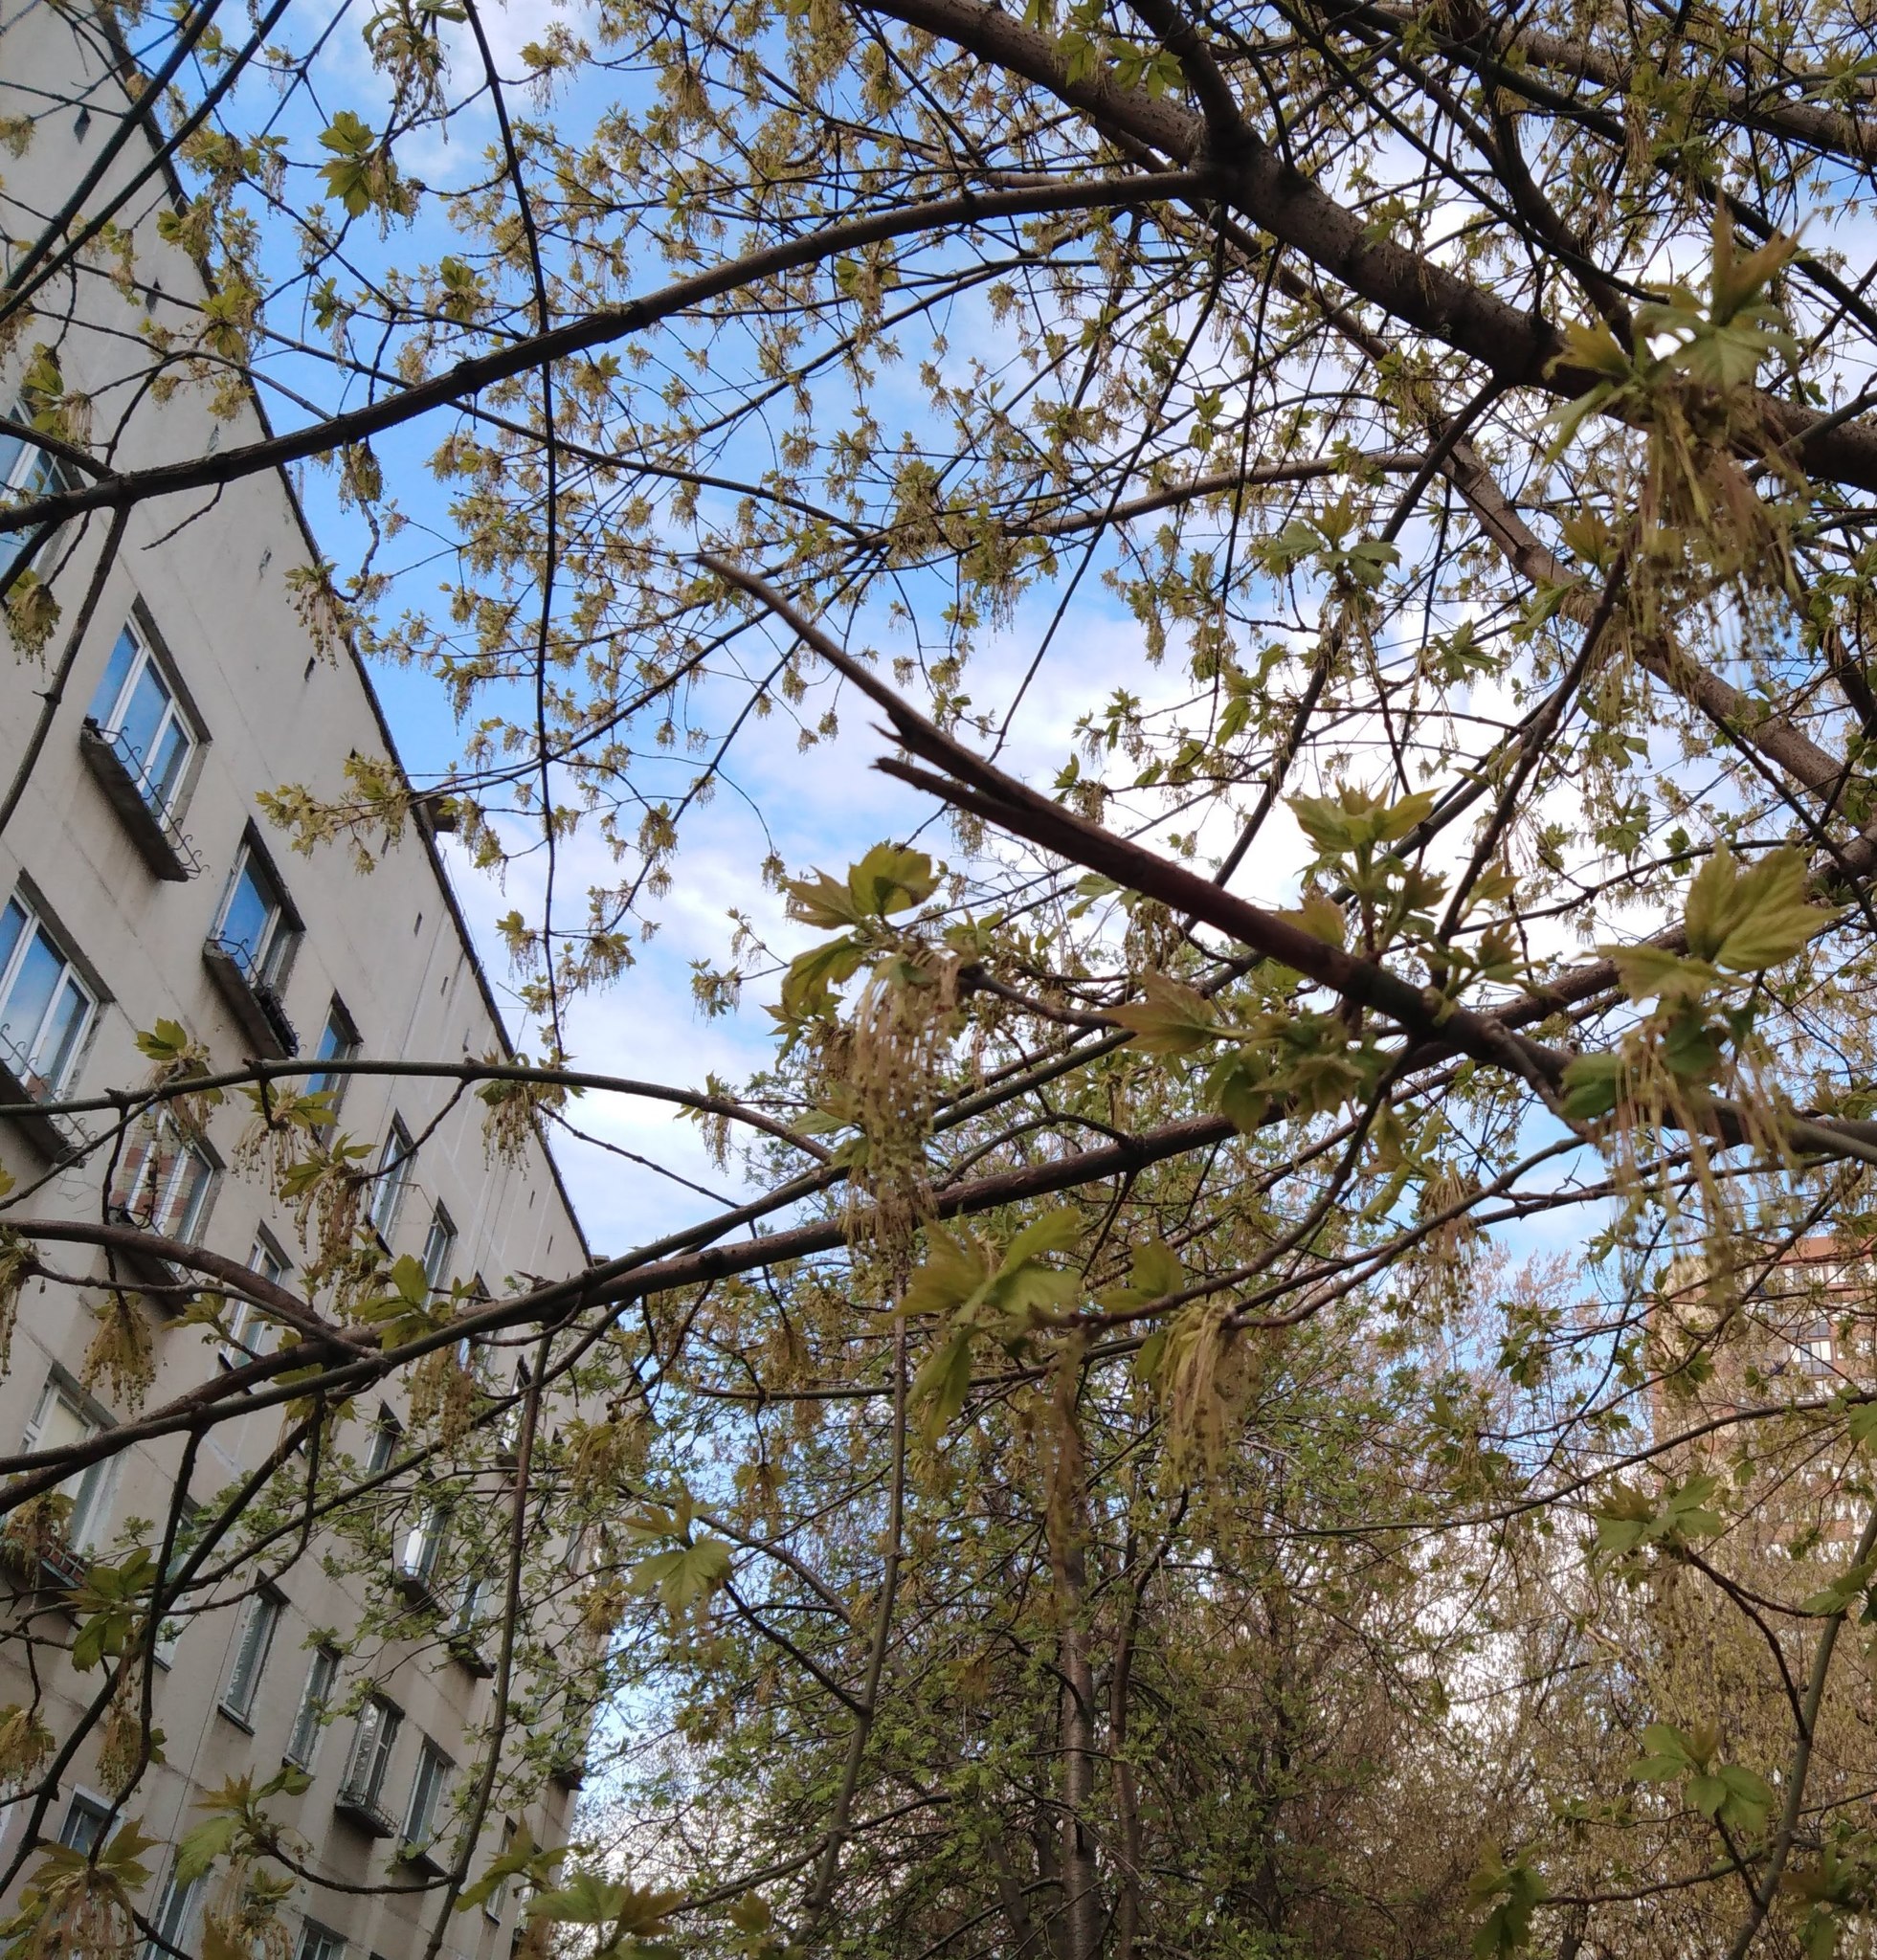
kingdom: Plantae
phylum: Tracheophyta
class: Magnoliopsida
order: Sapindales
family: Sapindaceae
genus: Acer
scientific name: Acer negundo
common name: Ashleaf maple
